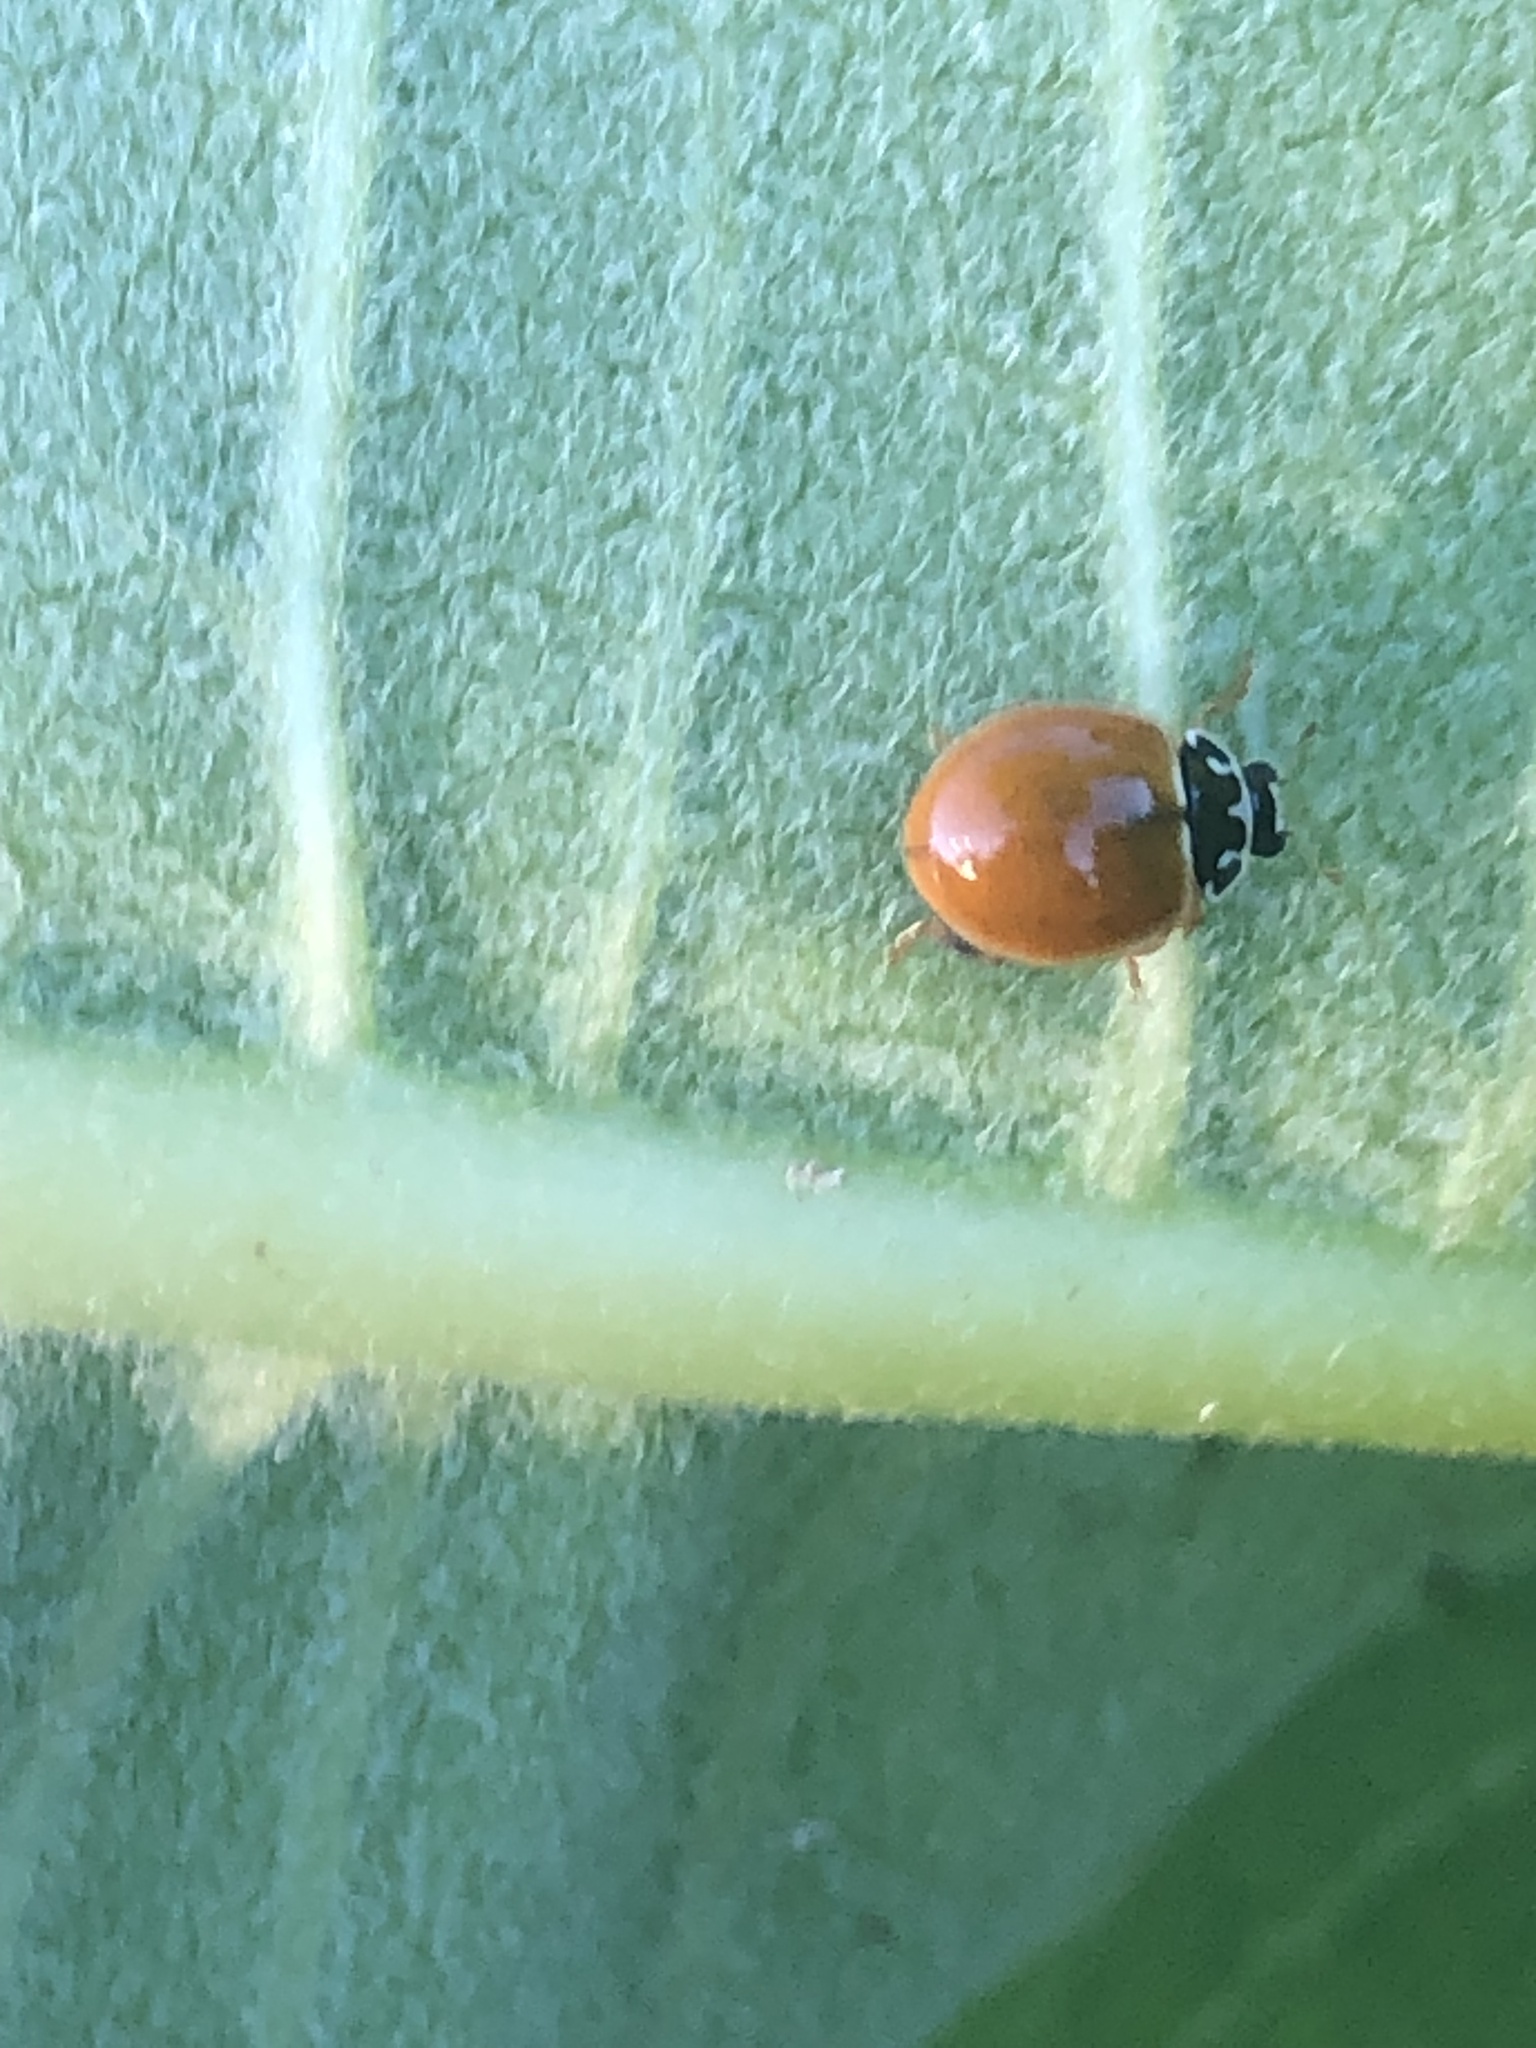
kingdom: Animalia
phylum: Arthropoda
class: Insecta
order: Coleoptera
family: Coccinellidae
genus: Cycloneda
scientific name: Cycloneda munda
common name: Polished lady beetle
